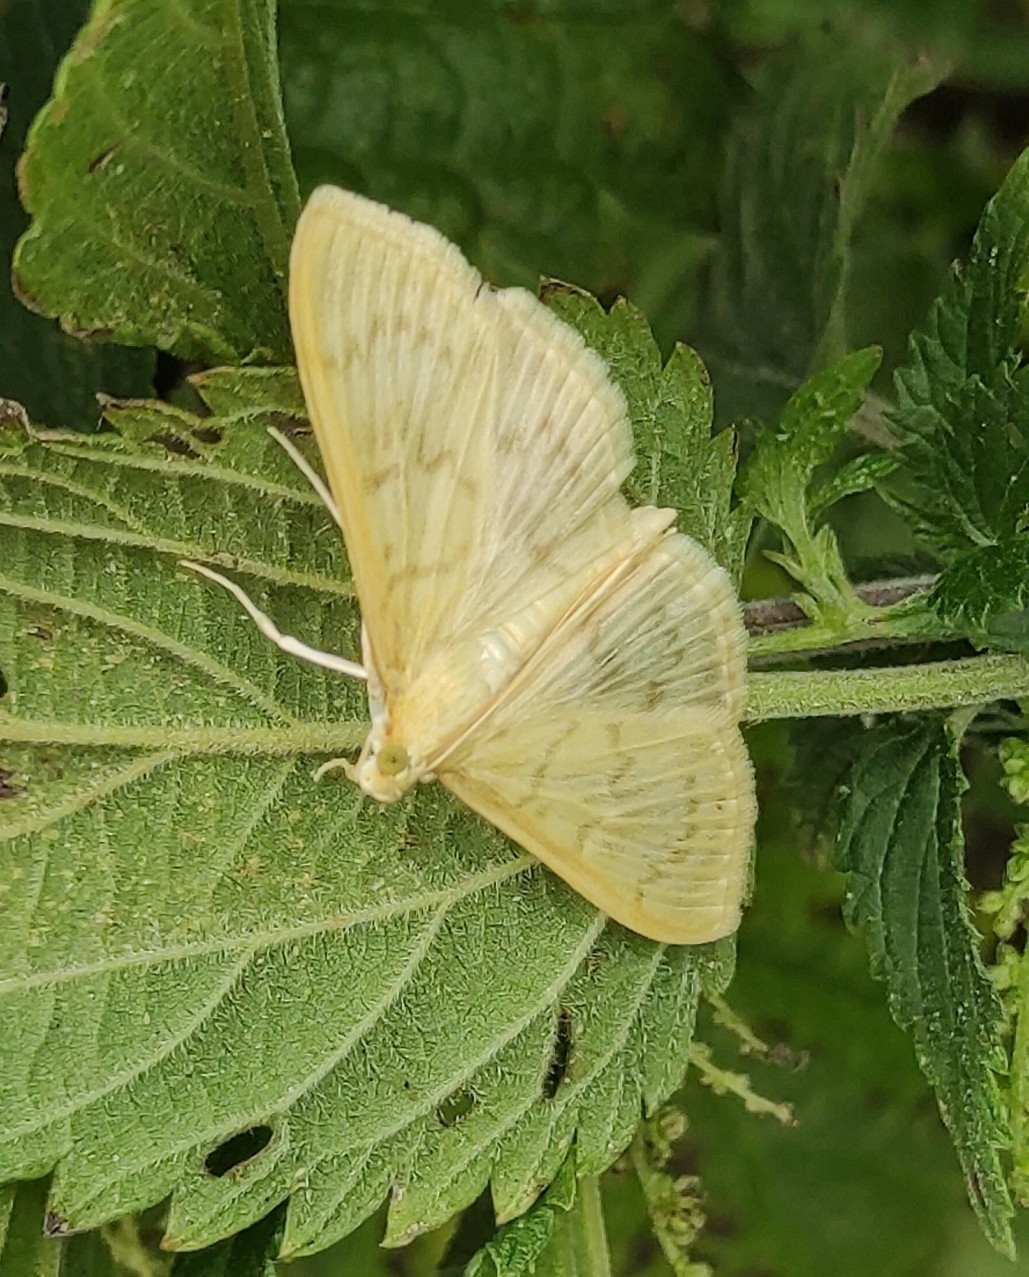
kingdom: Animalia
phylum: Arthropoda
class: Insecta
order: Lepidoptera
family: Crambidae
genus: Patania
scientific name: Patania ruralis
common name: Mother of pearl
